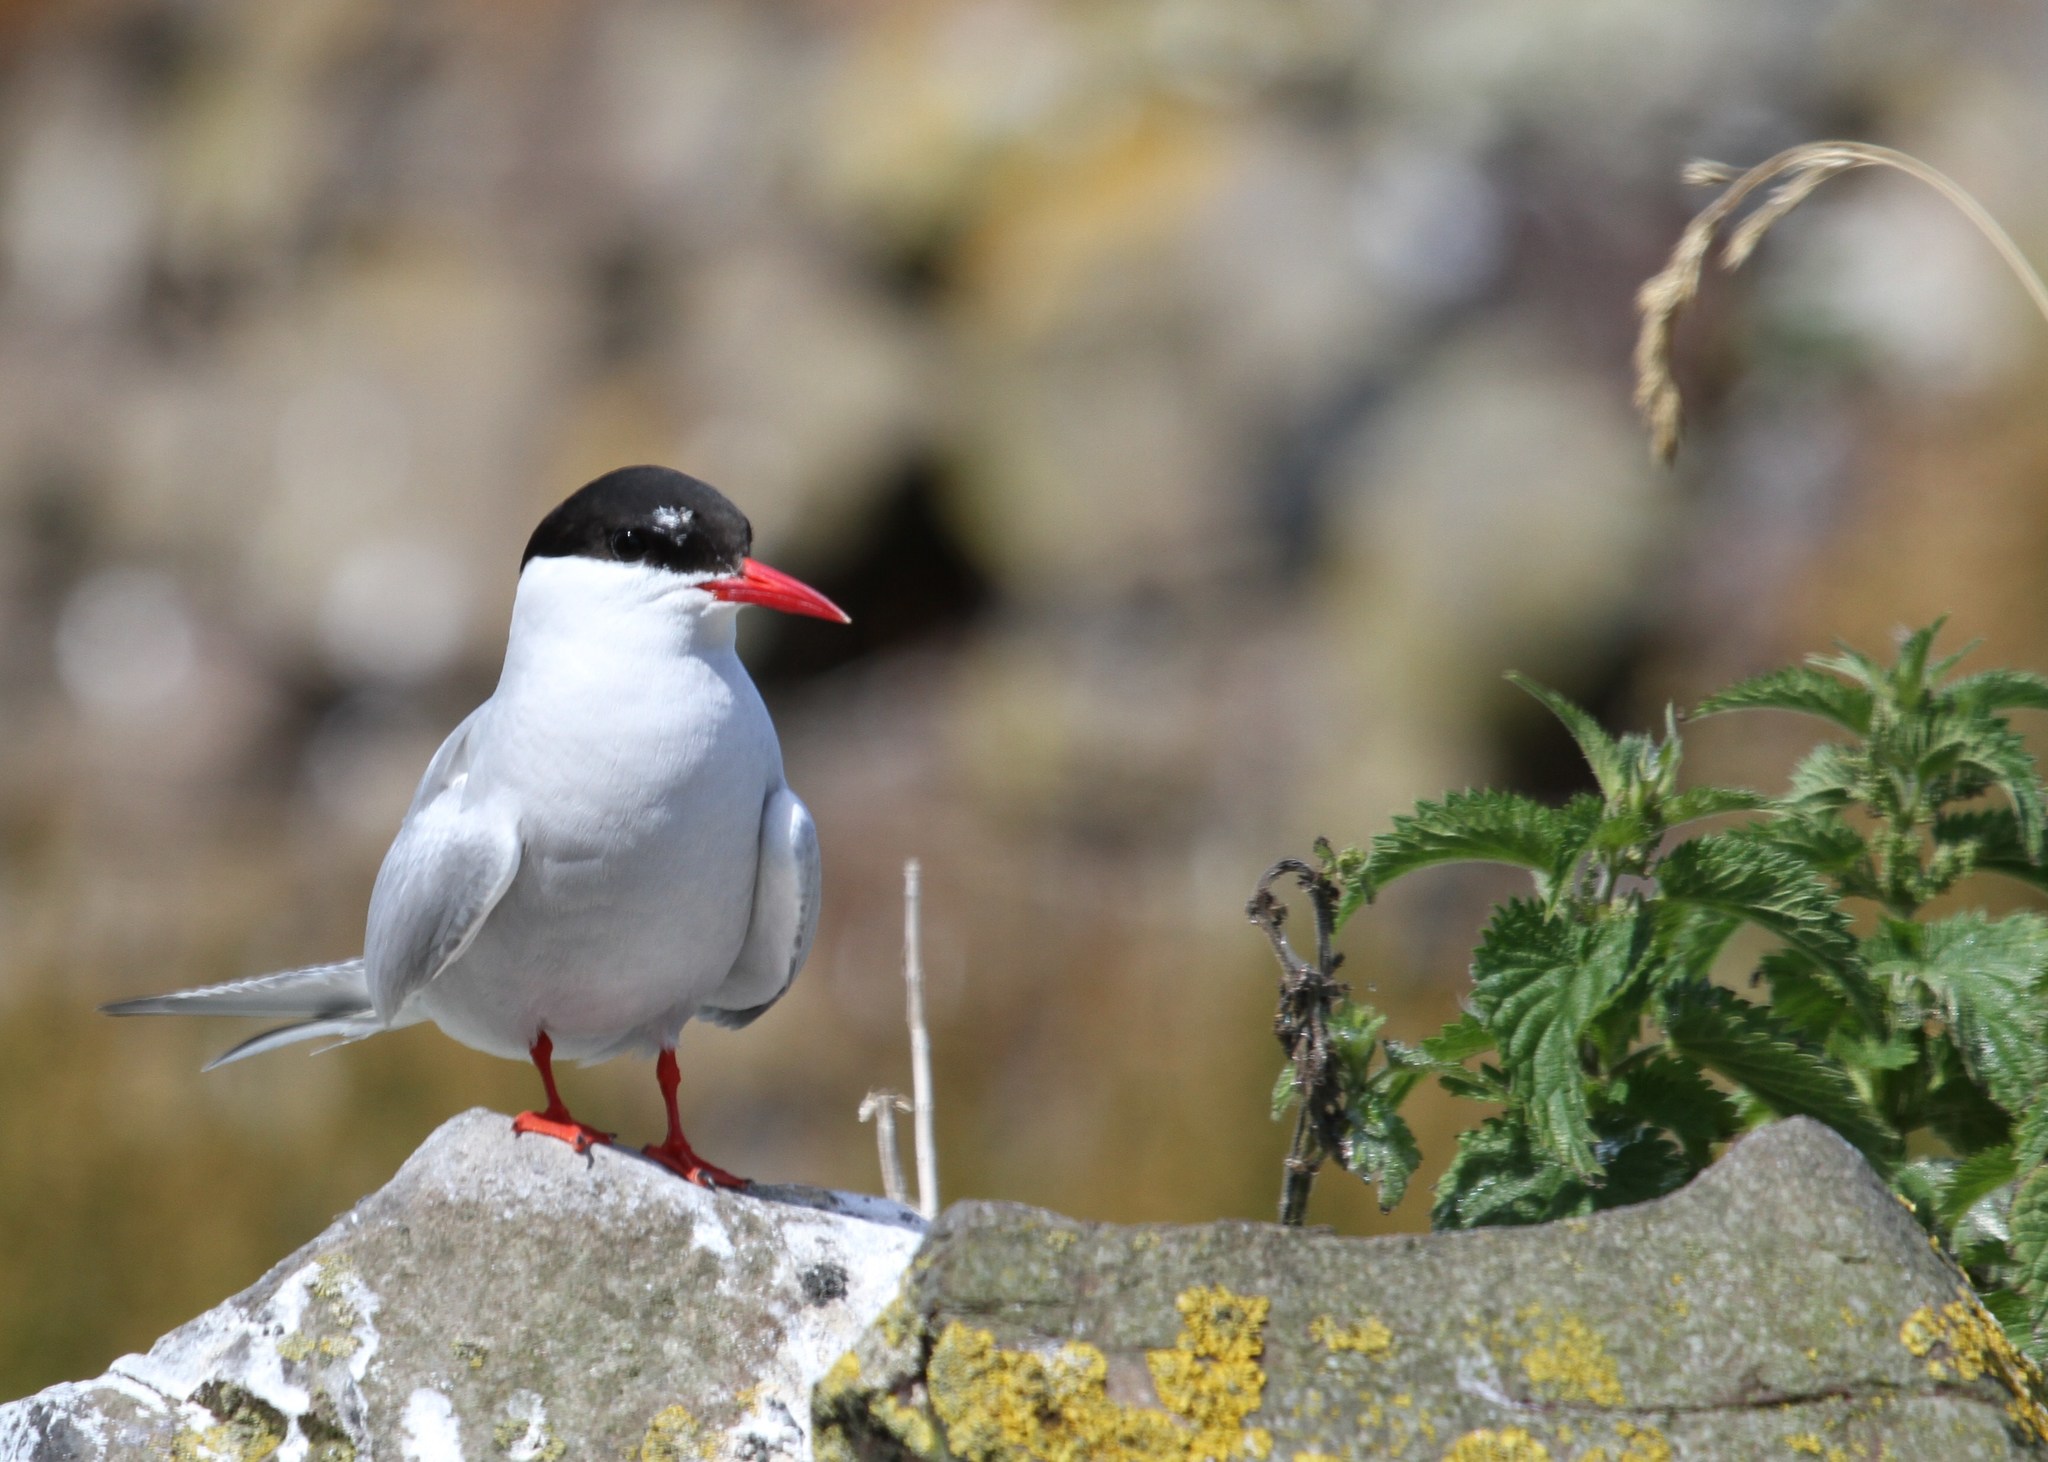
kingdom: Animalia
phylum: Chordata
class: Aves
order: Charadriiformes
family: Laridae
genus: Sterna
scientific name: Sterna paradisaea
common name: Arctic tern
